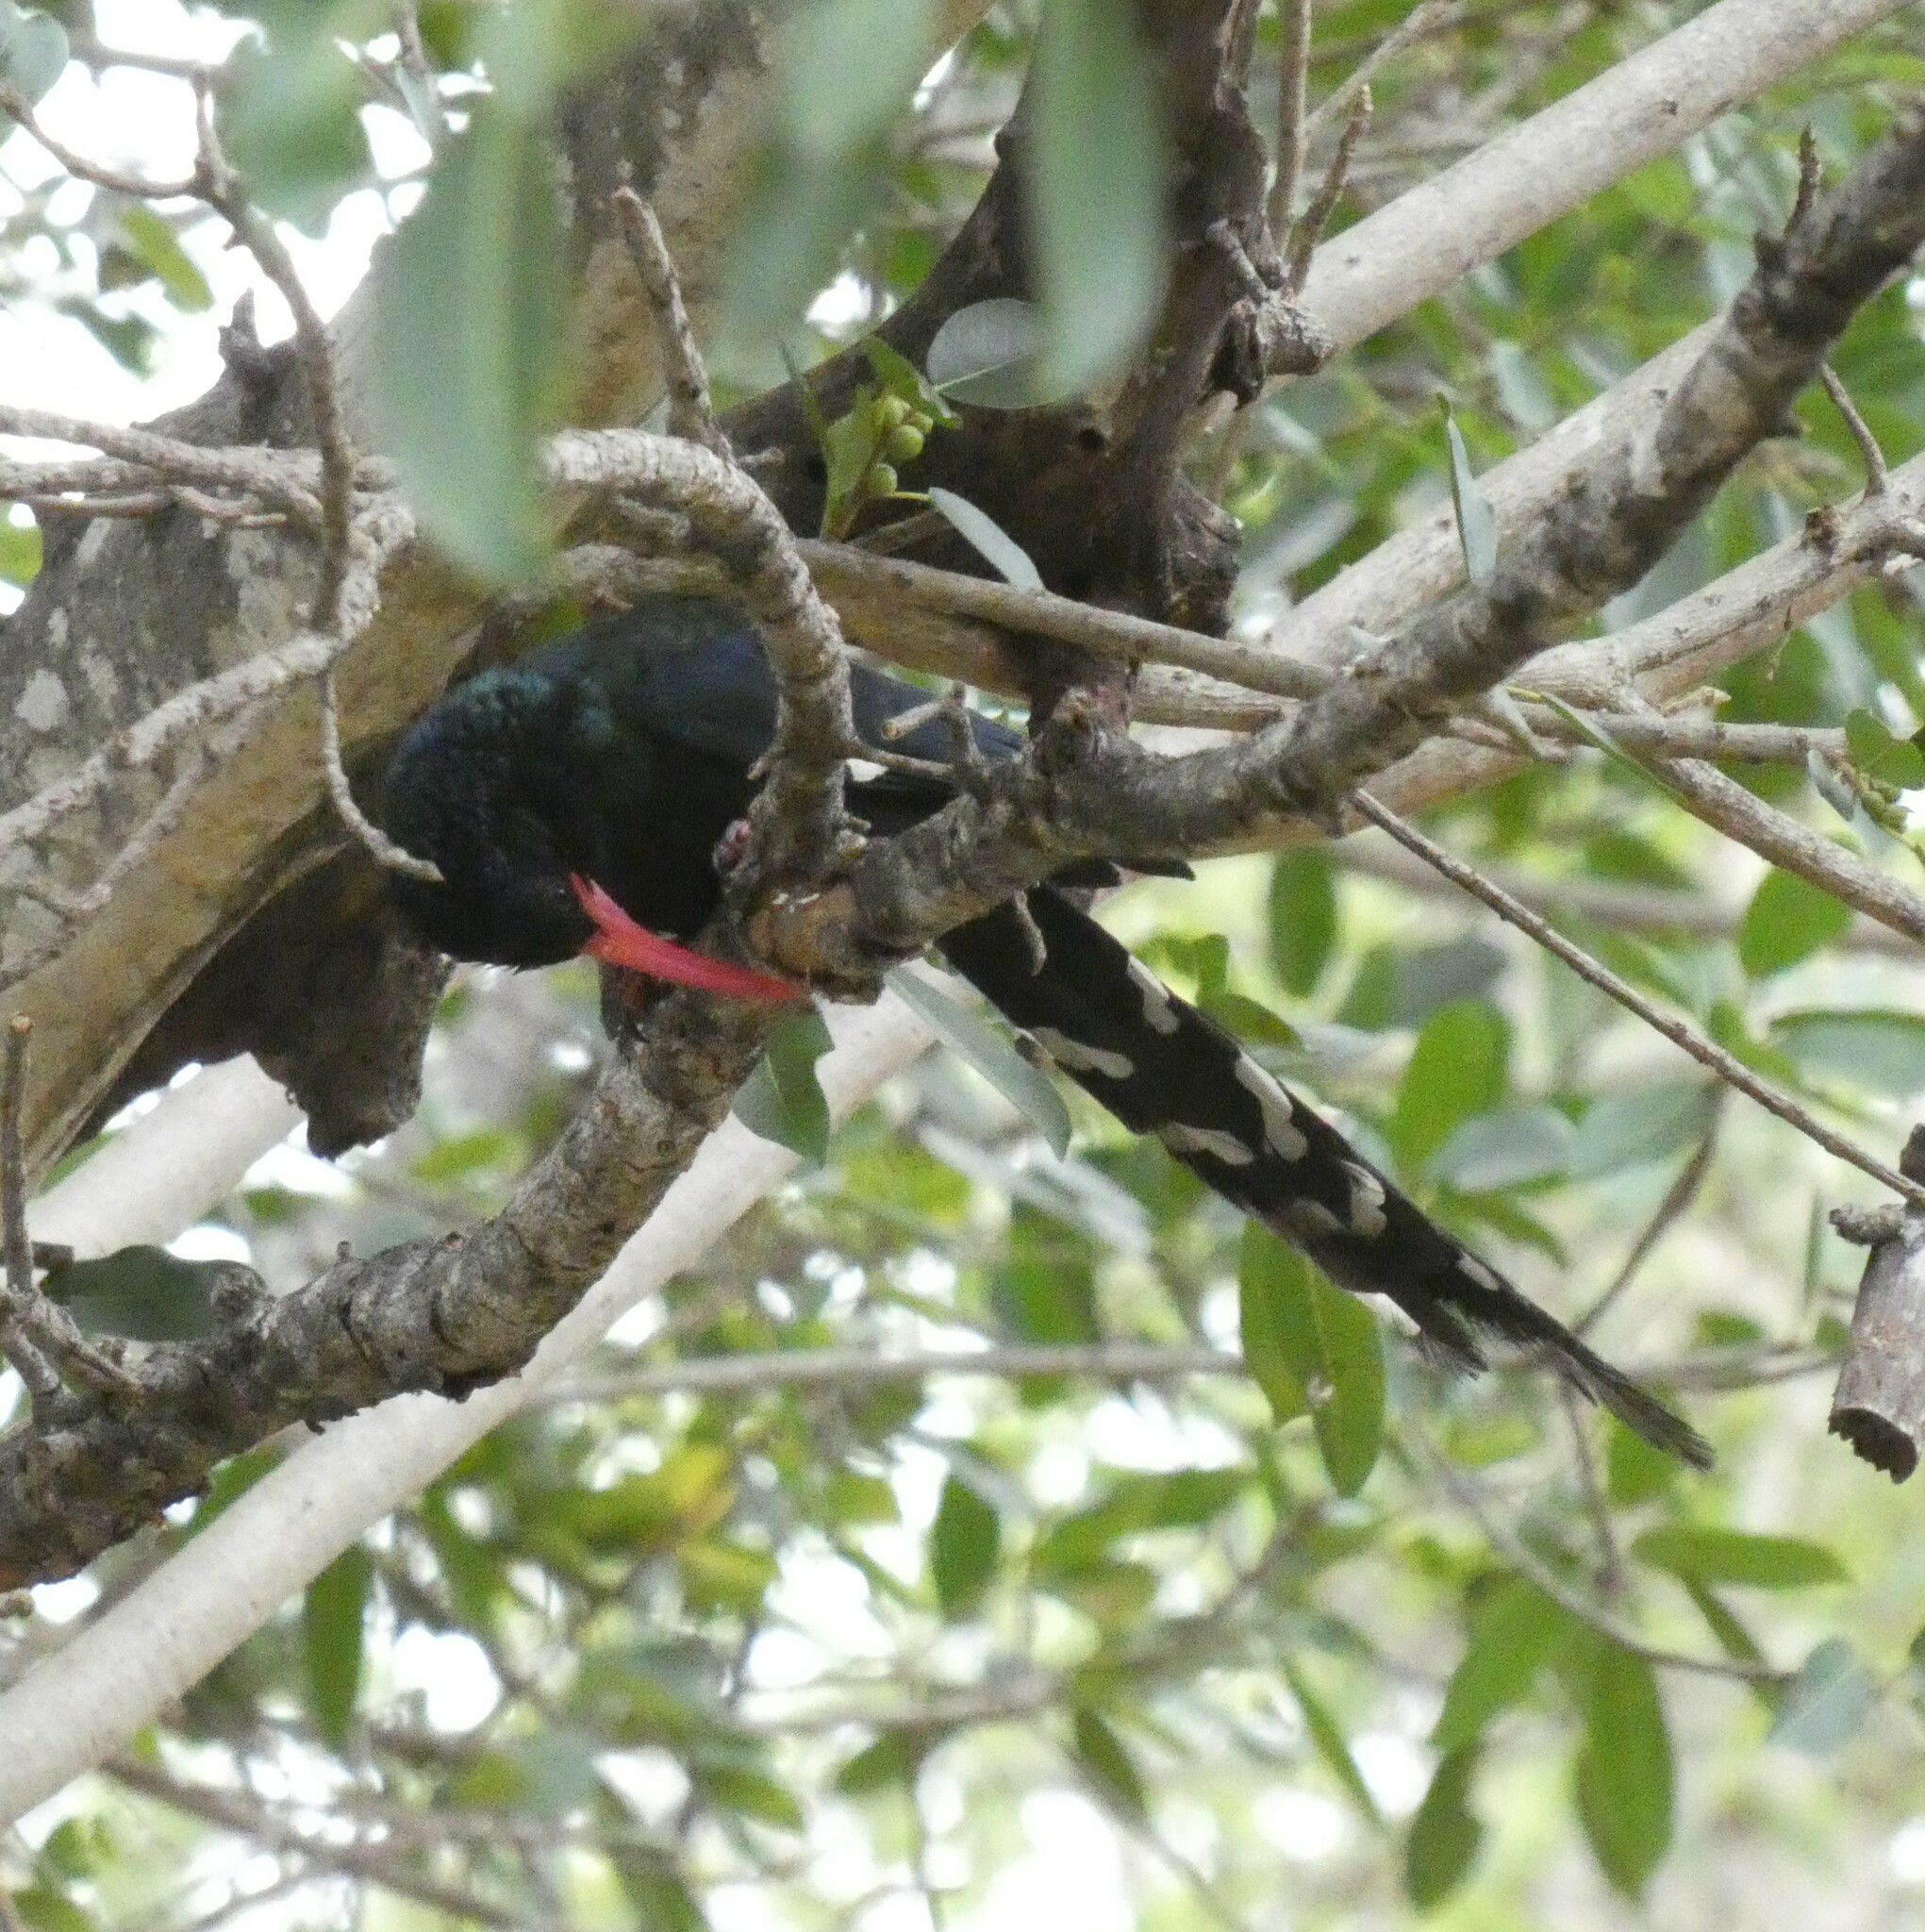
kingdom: Animalia
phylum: Chordata
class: Aves
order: Bucerotiformes
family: Phoeniculidae
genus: Phoeniculus
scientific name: Phoeniculus purpureus
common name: Green woodhoopoe
